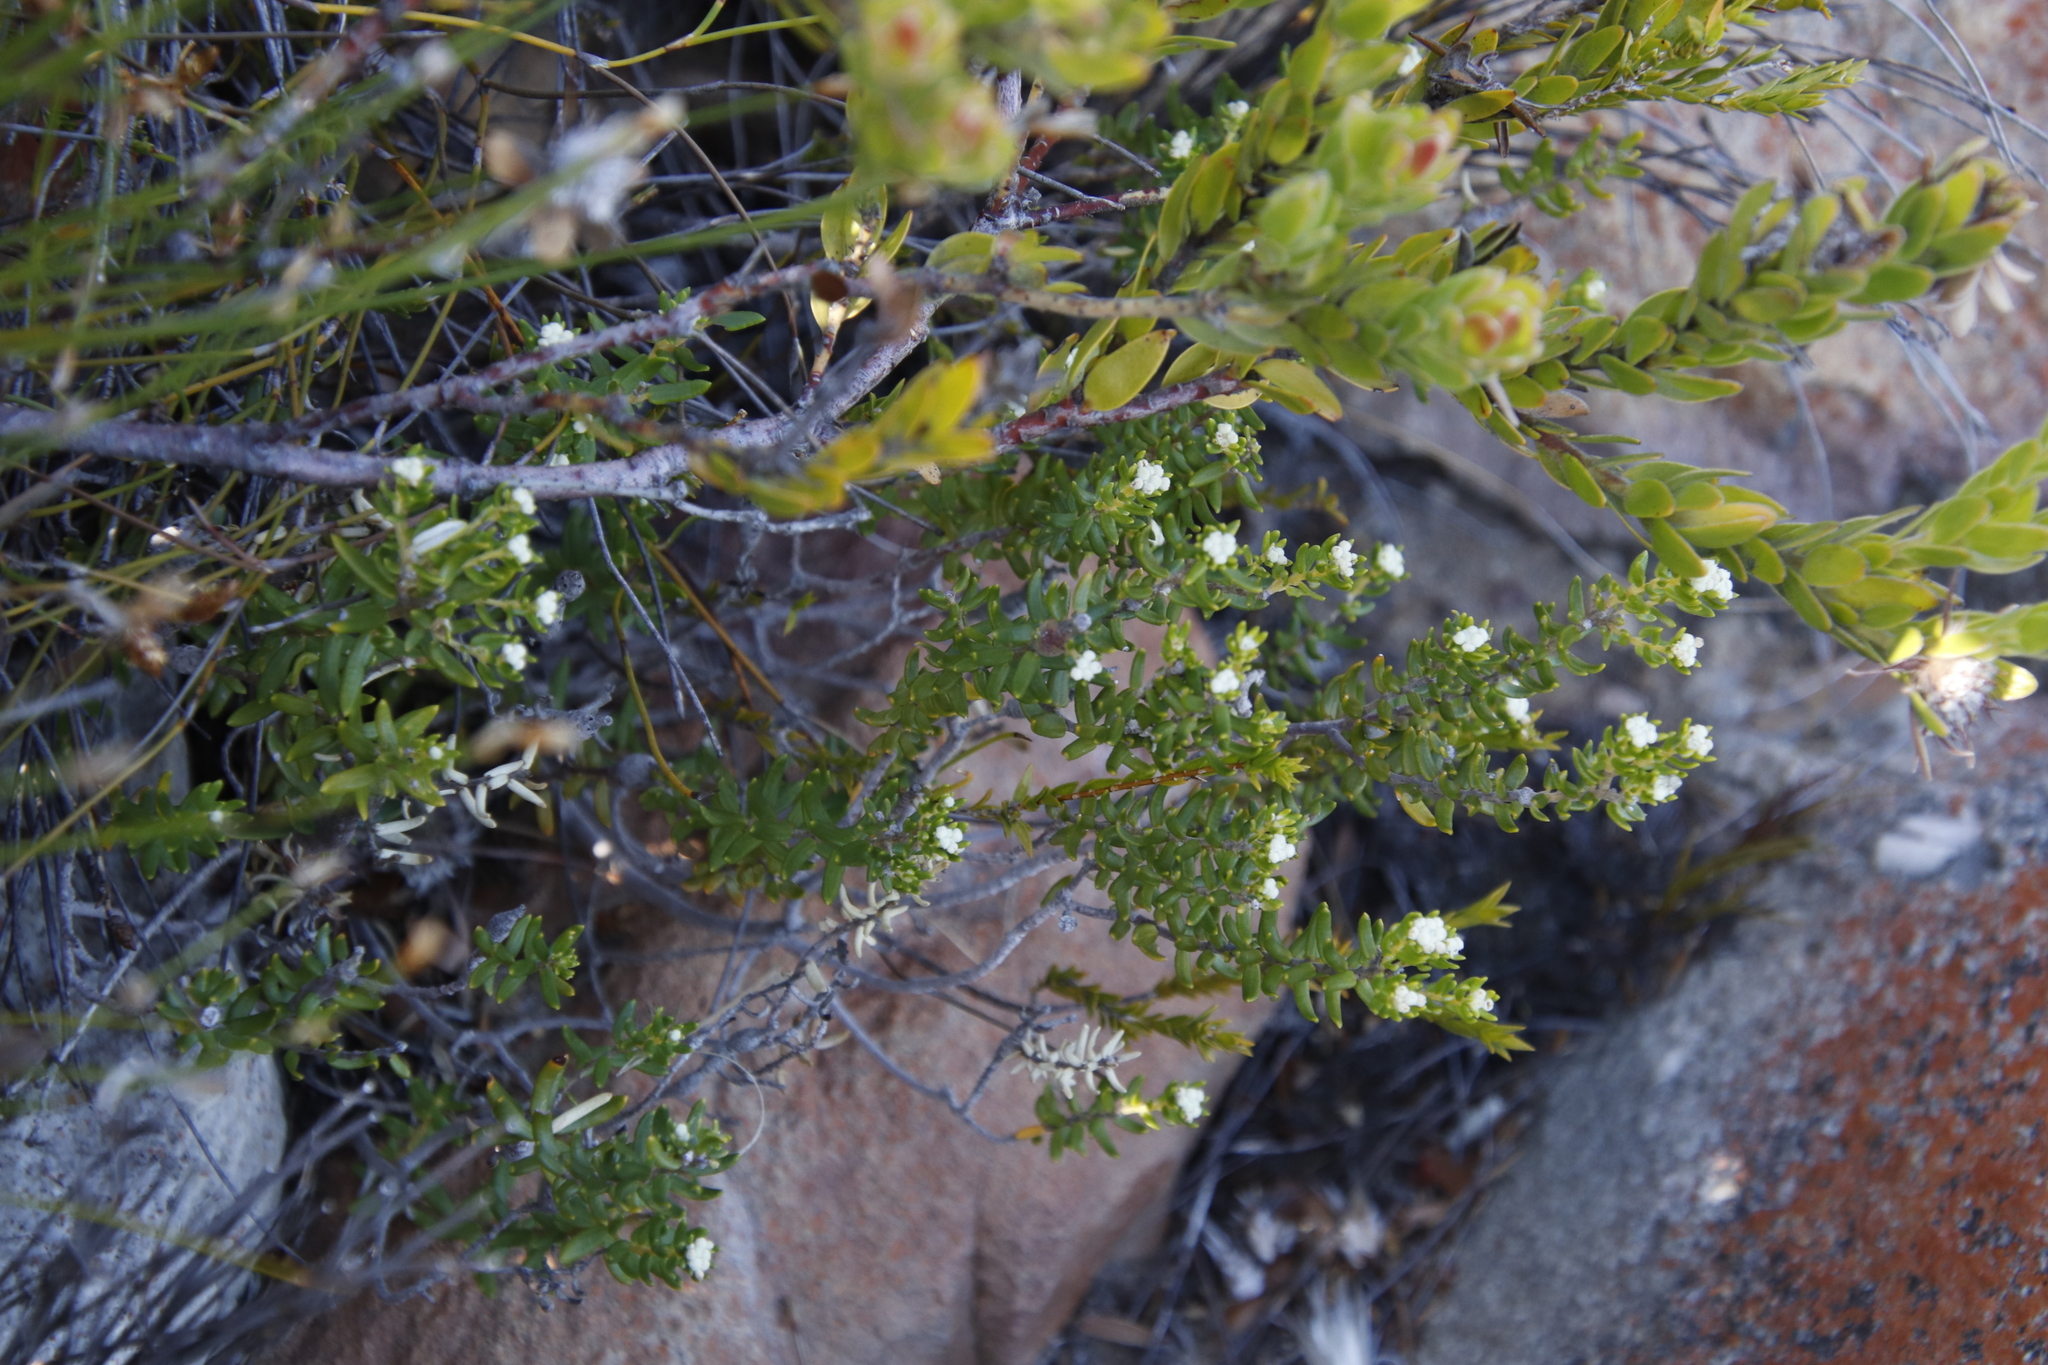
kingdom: Plantae
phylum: Tracheophyta
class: Magnoliopsida
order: Rosales
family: Rhamnaceae
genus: Phylica
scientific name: Phylica lasiocarpa
